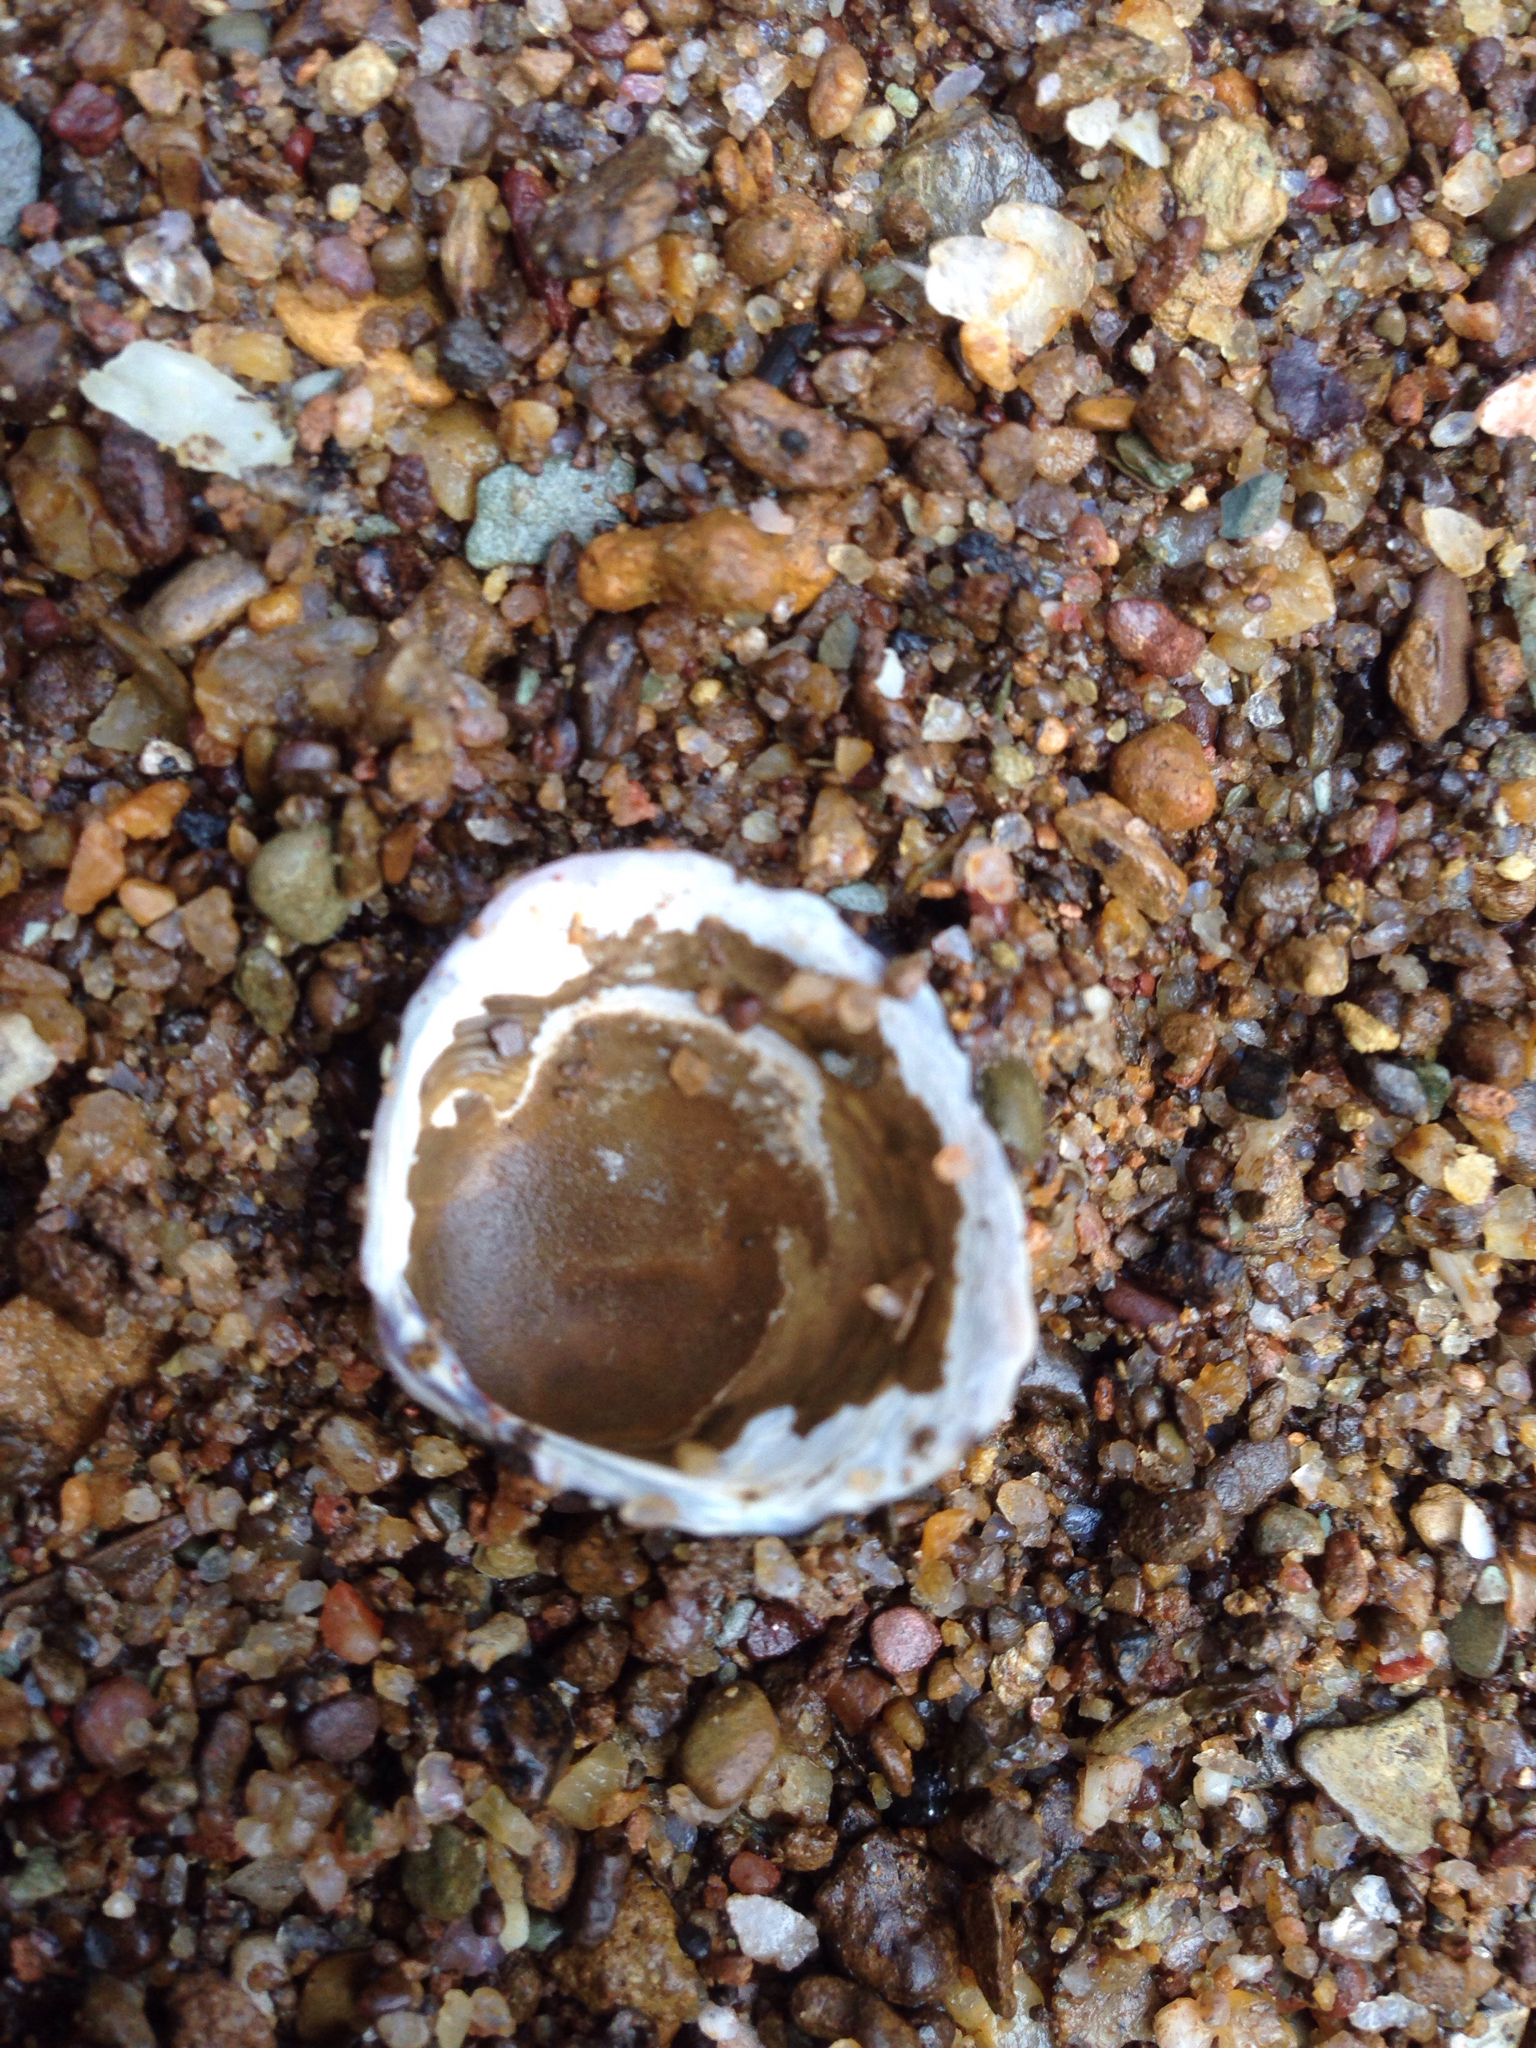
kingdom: Animalia
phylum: Mollusca
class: Bivalvia
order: Venerida
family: Cyrenidae
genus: Corbicula
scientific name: Corbicula fluminea
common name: Asian clam
